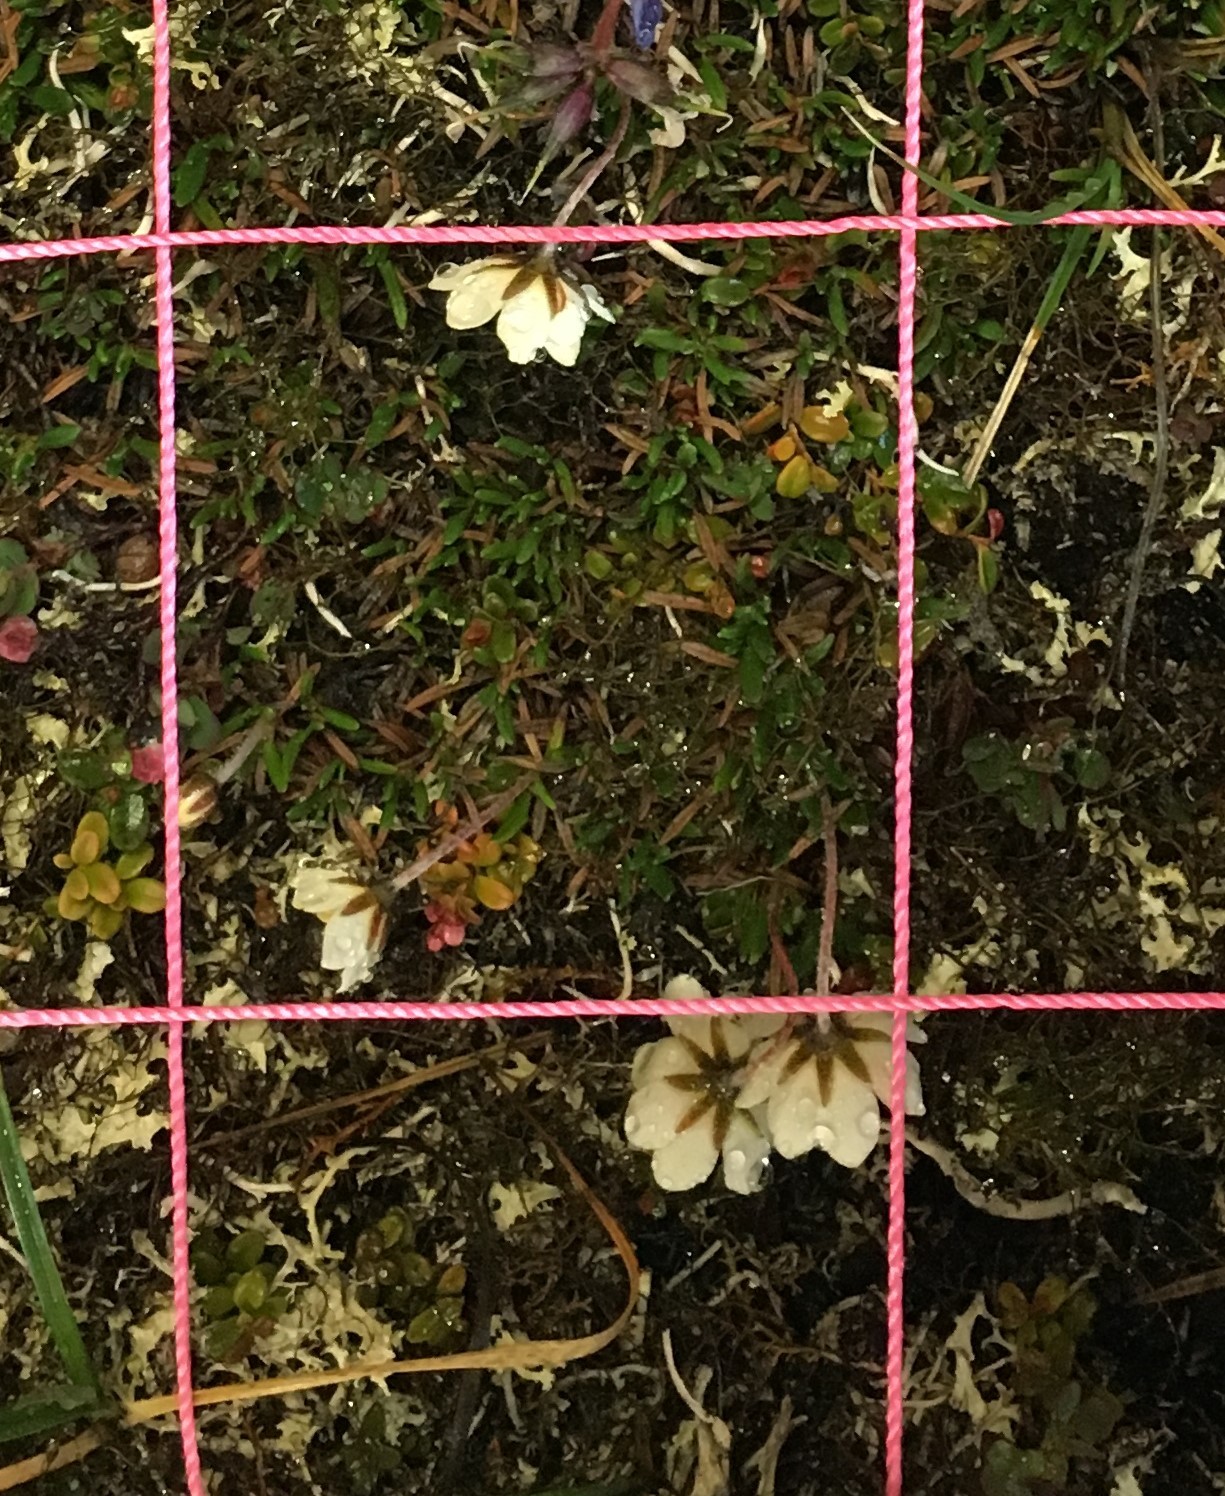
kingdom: Plantae
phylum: Tracheophyta
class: Magnoliopsida
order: Rosales
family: Rosaceae
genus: Dryas
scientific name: Dryas integrifolia
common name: Entire-leaved mountain avens
